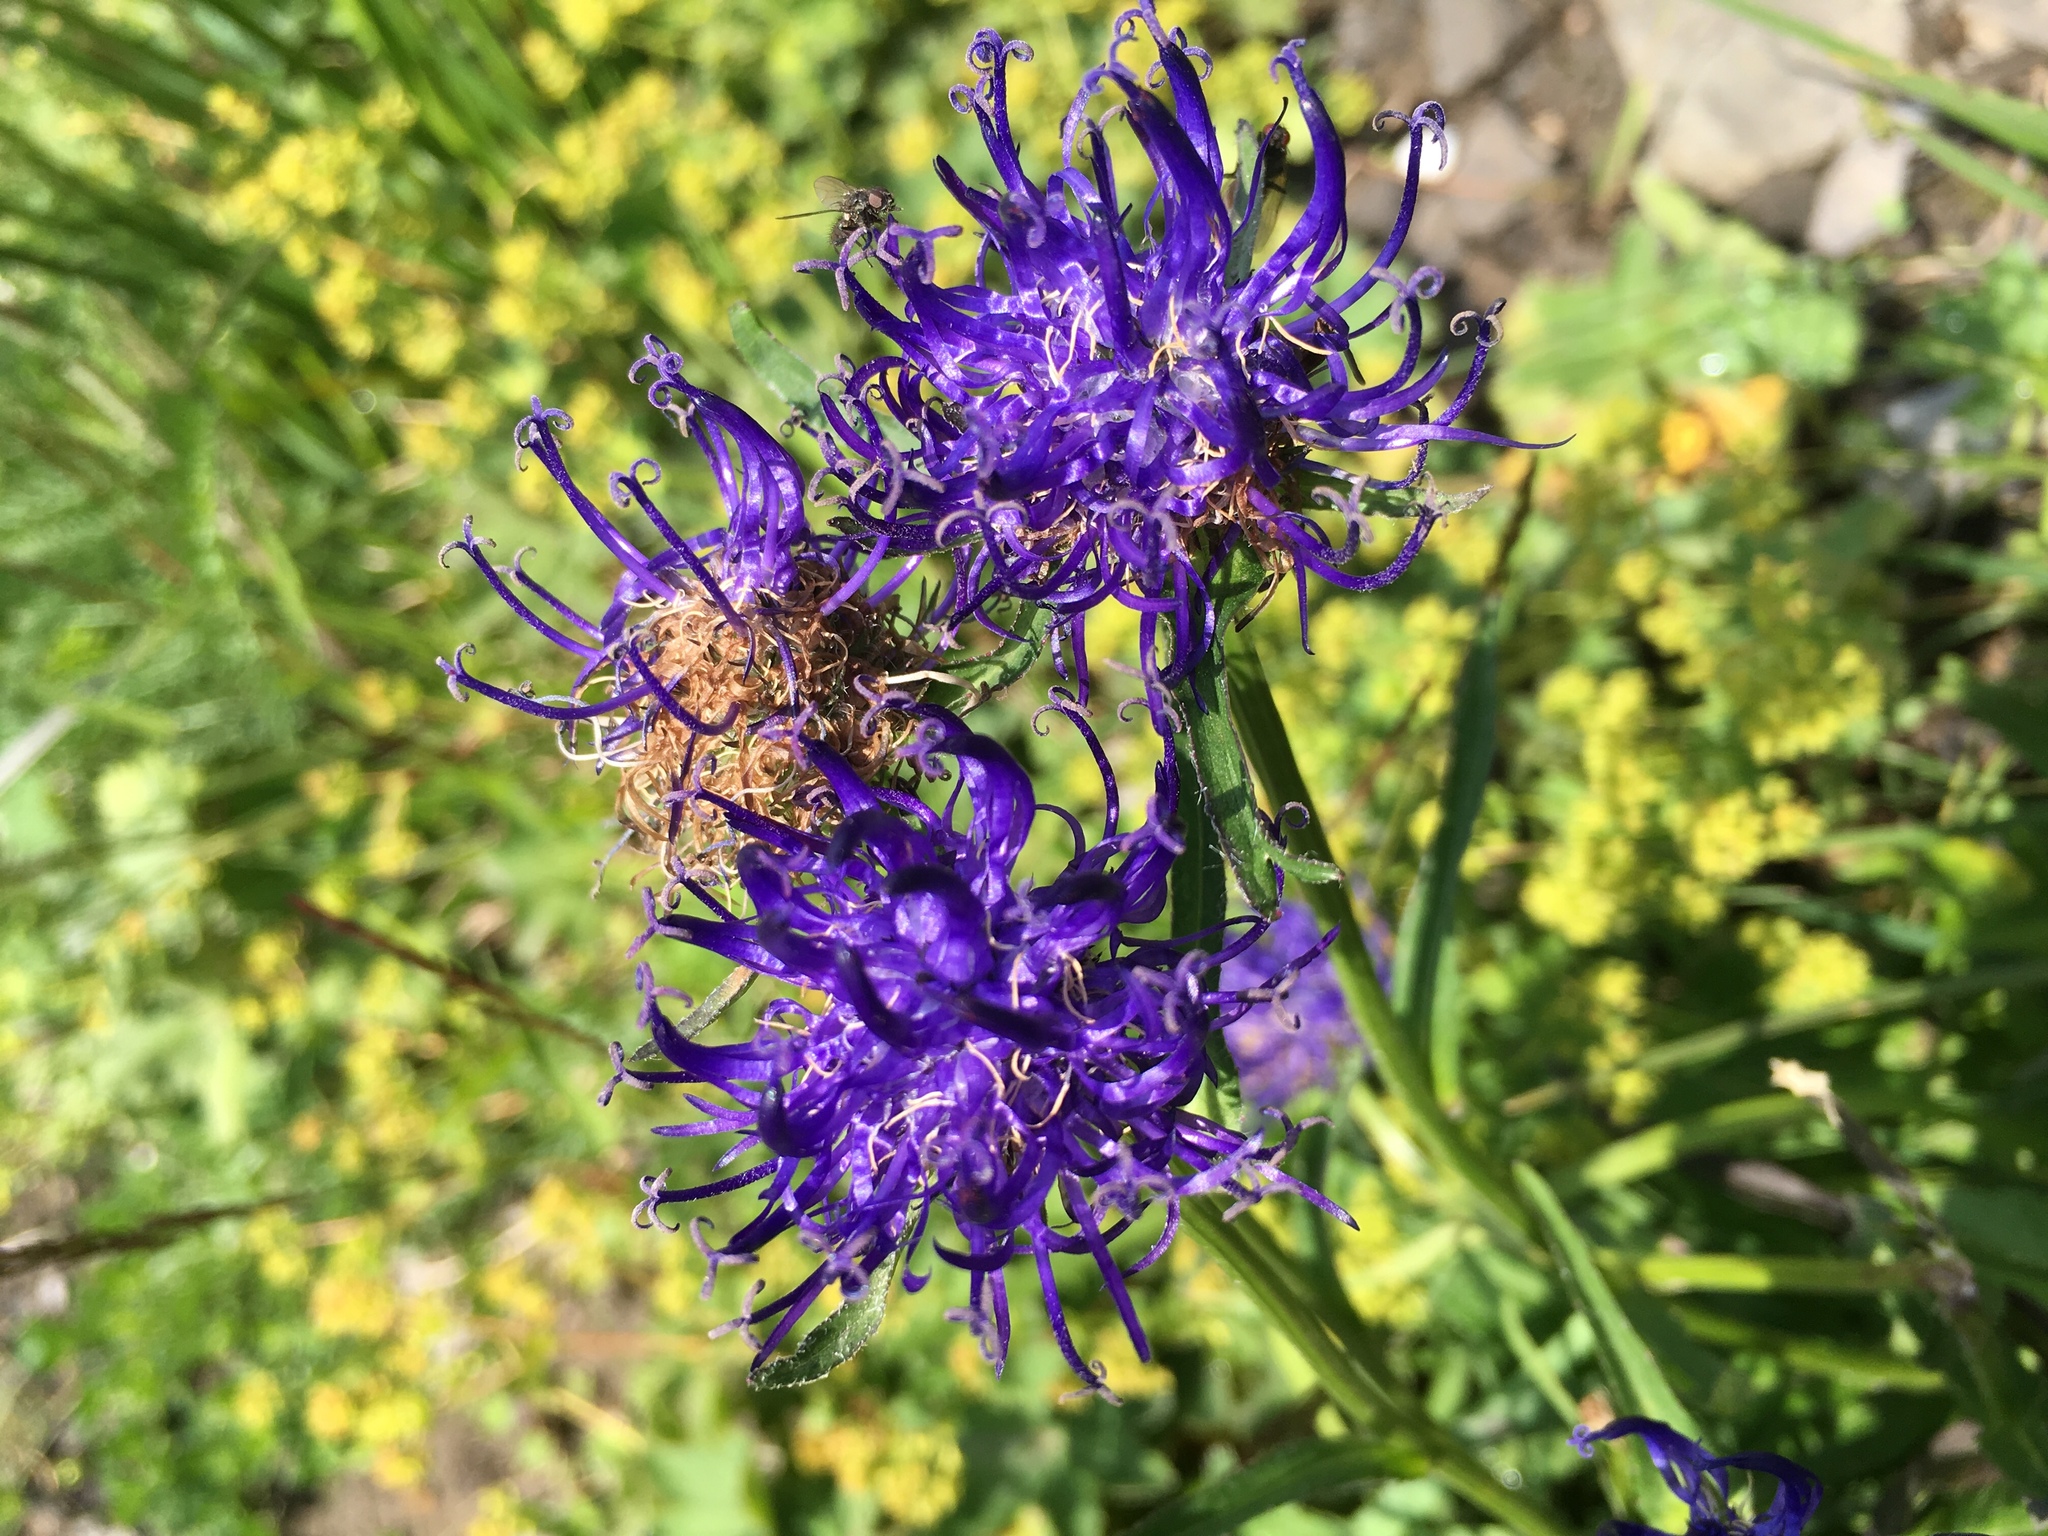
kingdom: Plantae
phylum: Tracheophyta
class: Magnoliopsida
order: Asterales
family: Campanulaceae
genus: Phyteuma
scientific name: Phyteuma orbiculare
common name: Round-headed rampion
